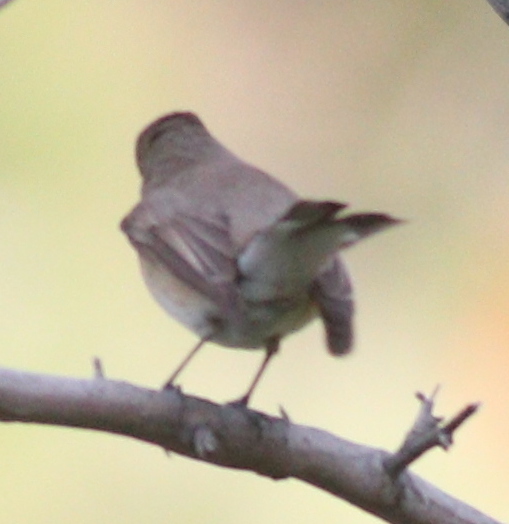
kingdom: Animalia
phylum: Chordata
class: Aves
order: Passeriformes
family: Muscicapidae
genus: Ficedula
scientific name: Ficedula parva
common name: Red-breasted flycatcher
